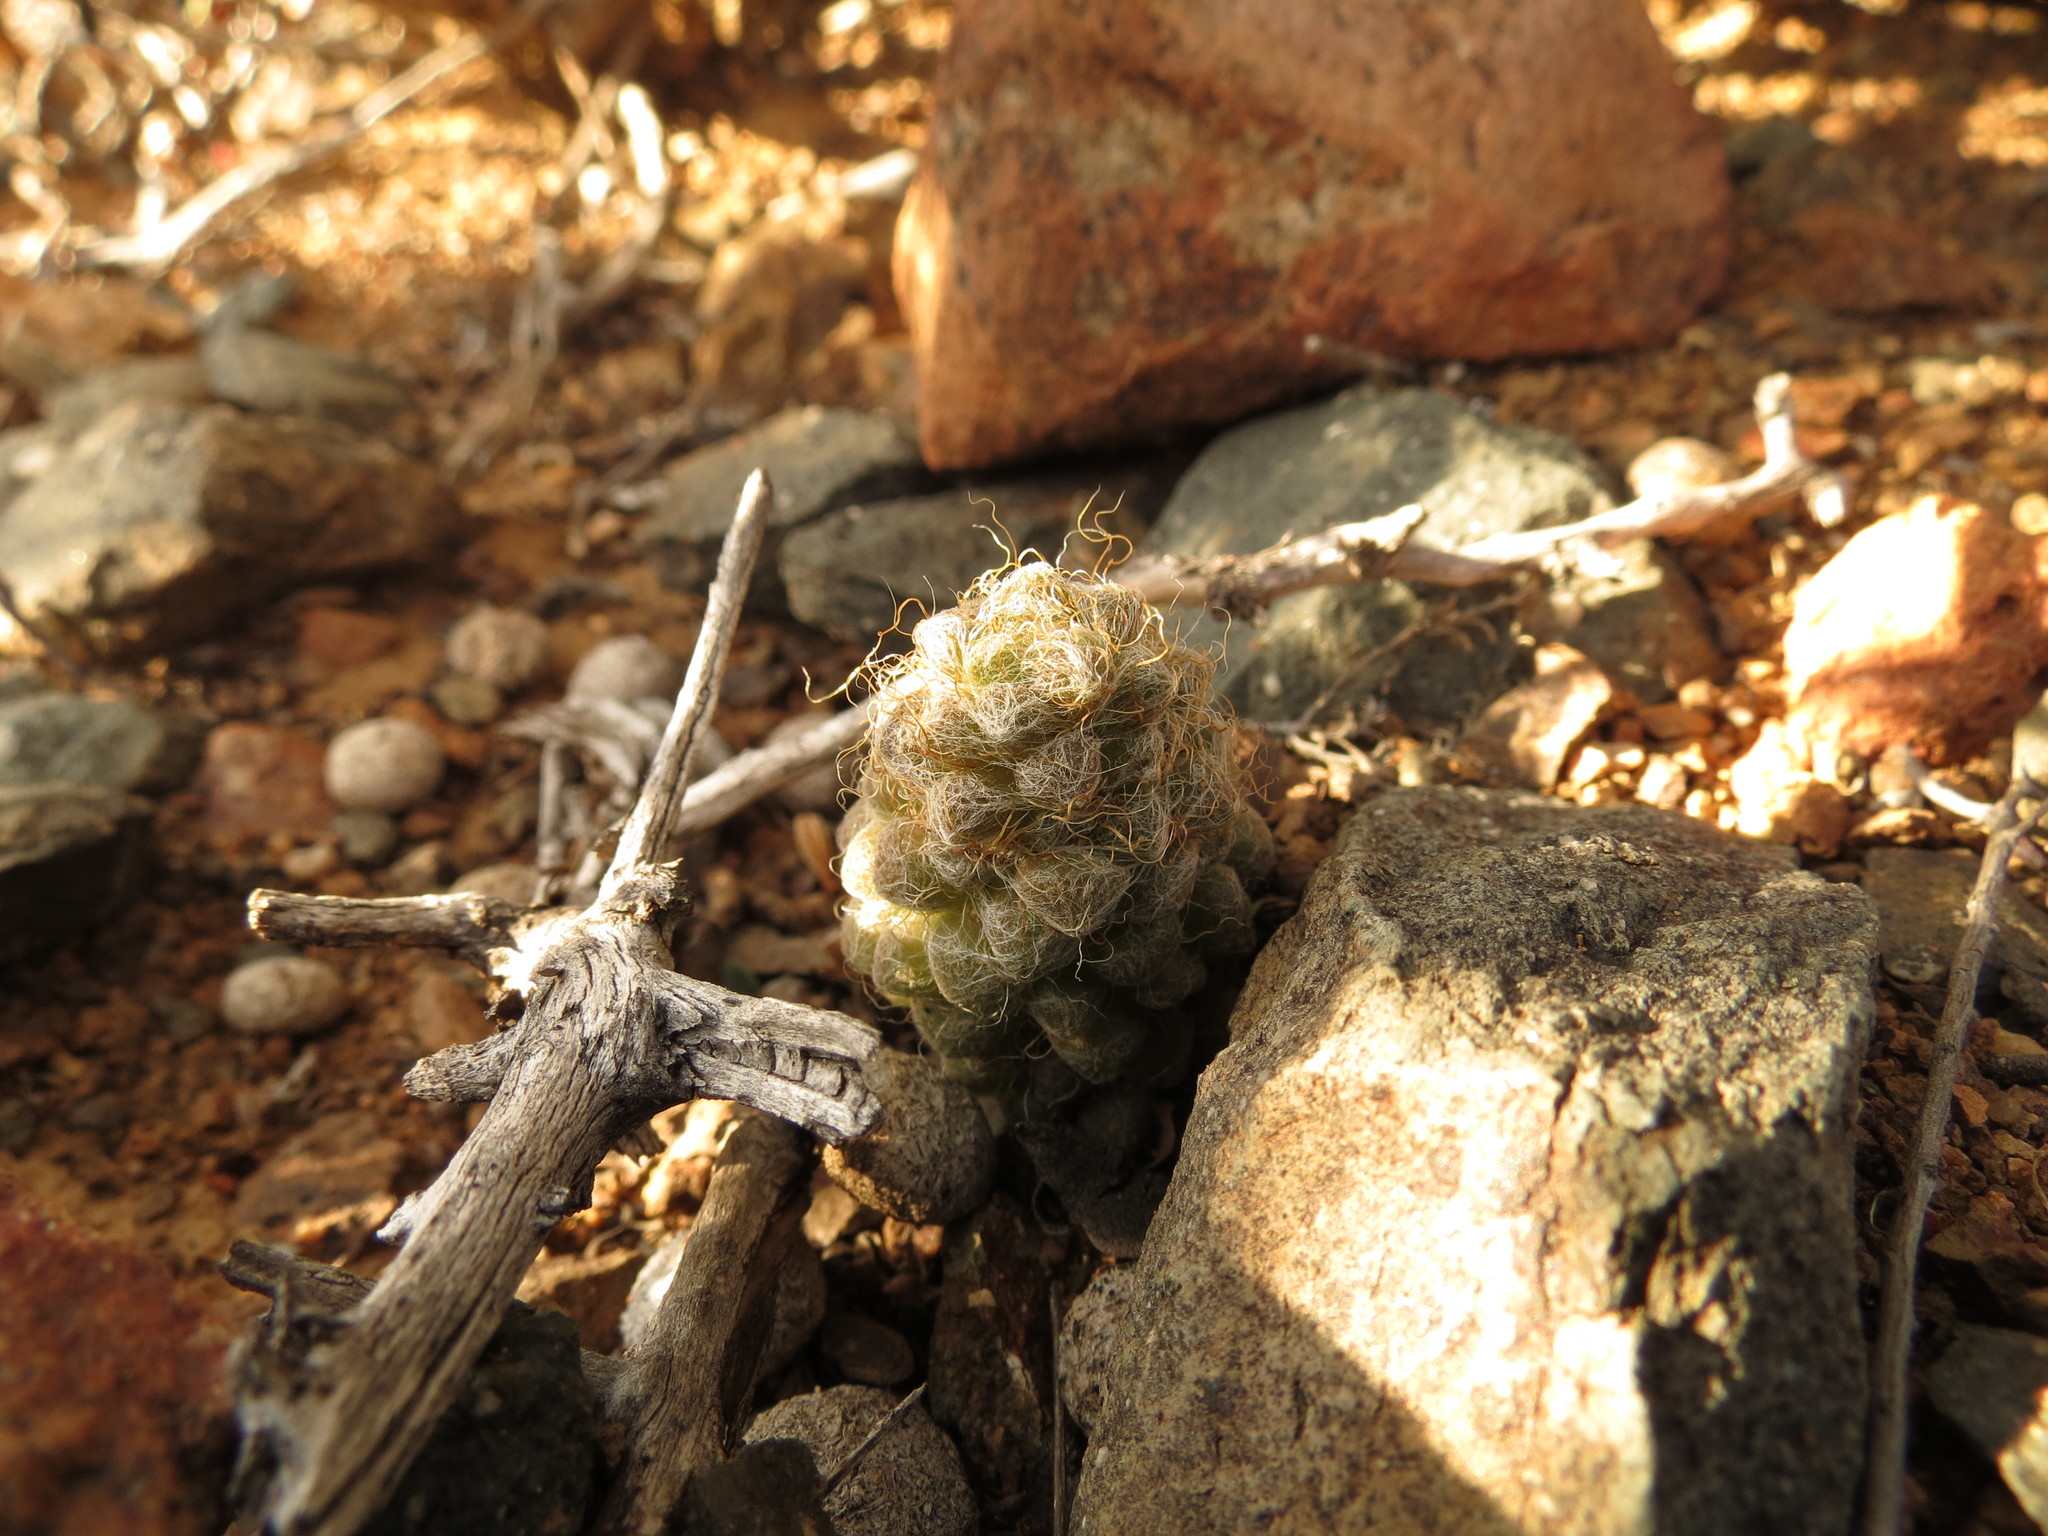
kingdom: Plantae
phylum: Tracheophyta
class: Magnoliopsida
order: Caryophyllales
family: Anacampserotaceae
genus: Anacampseros
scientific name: Anacampseros albidiflora
